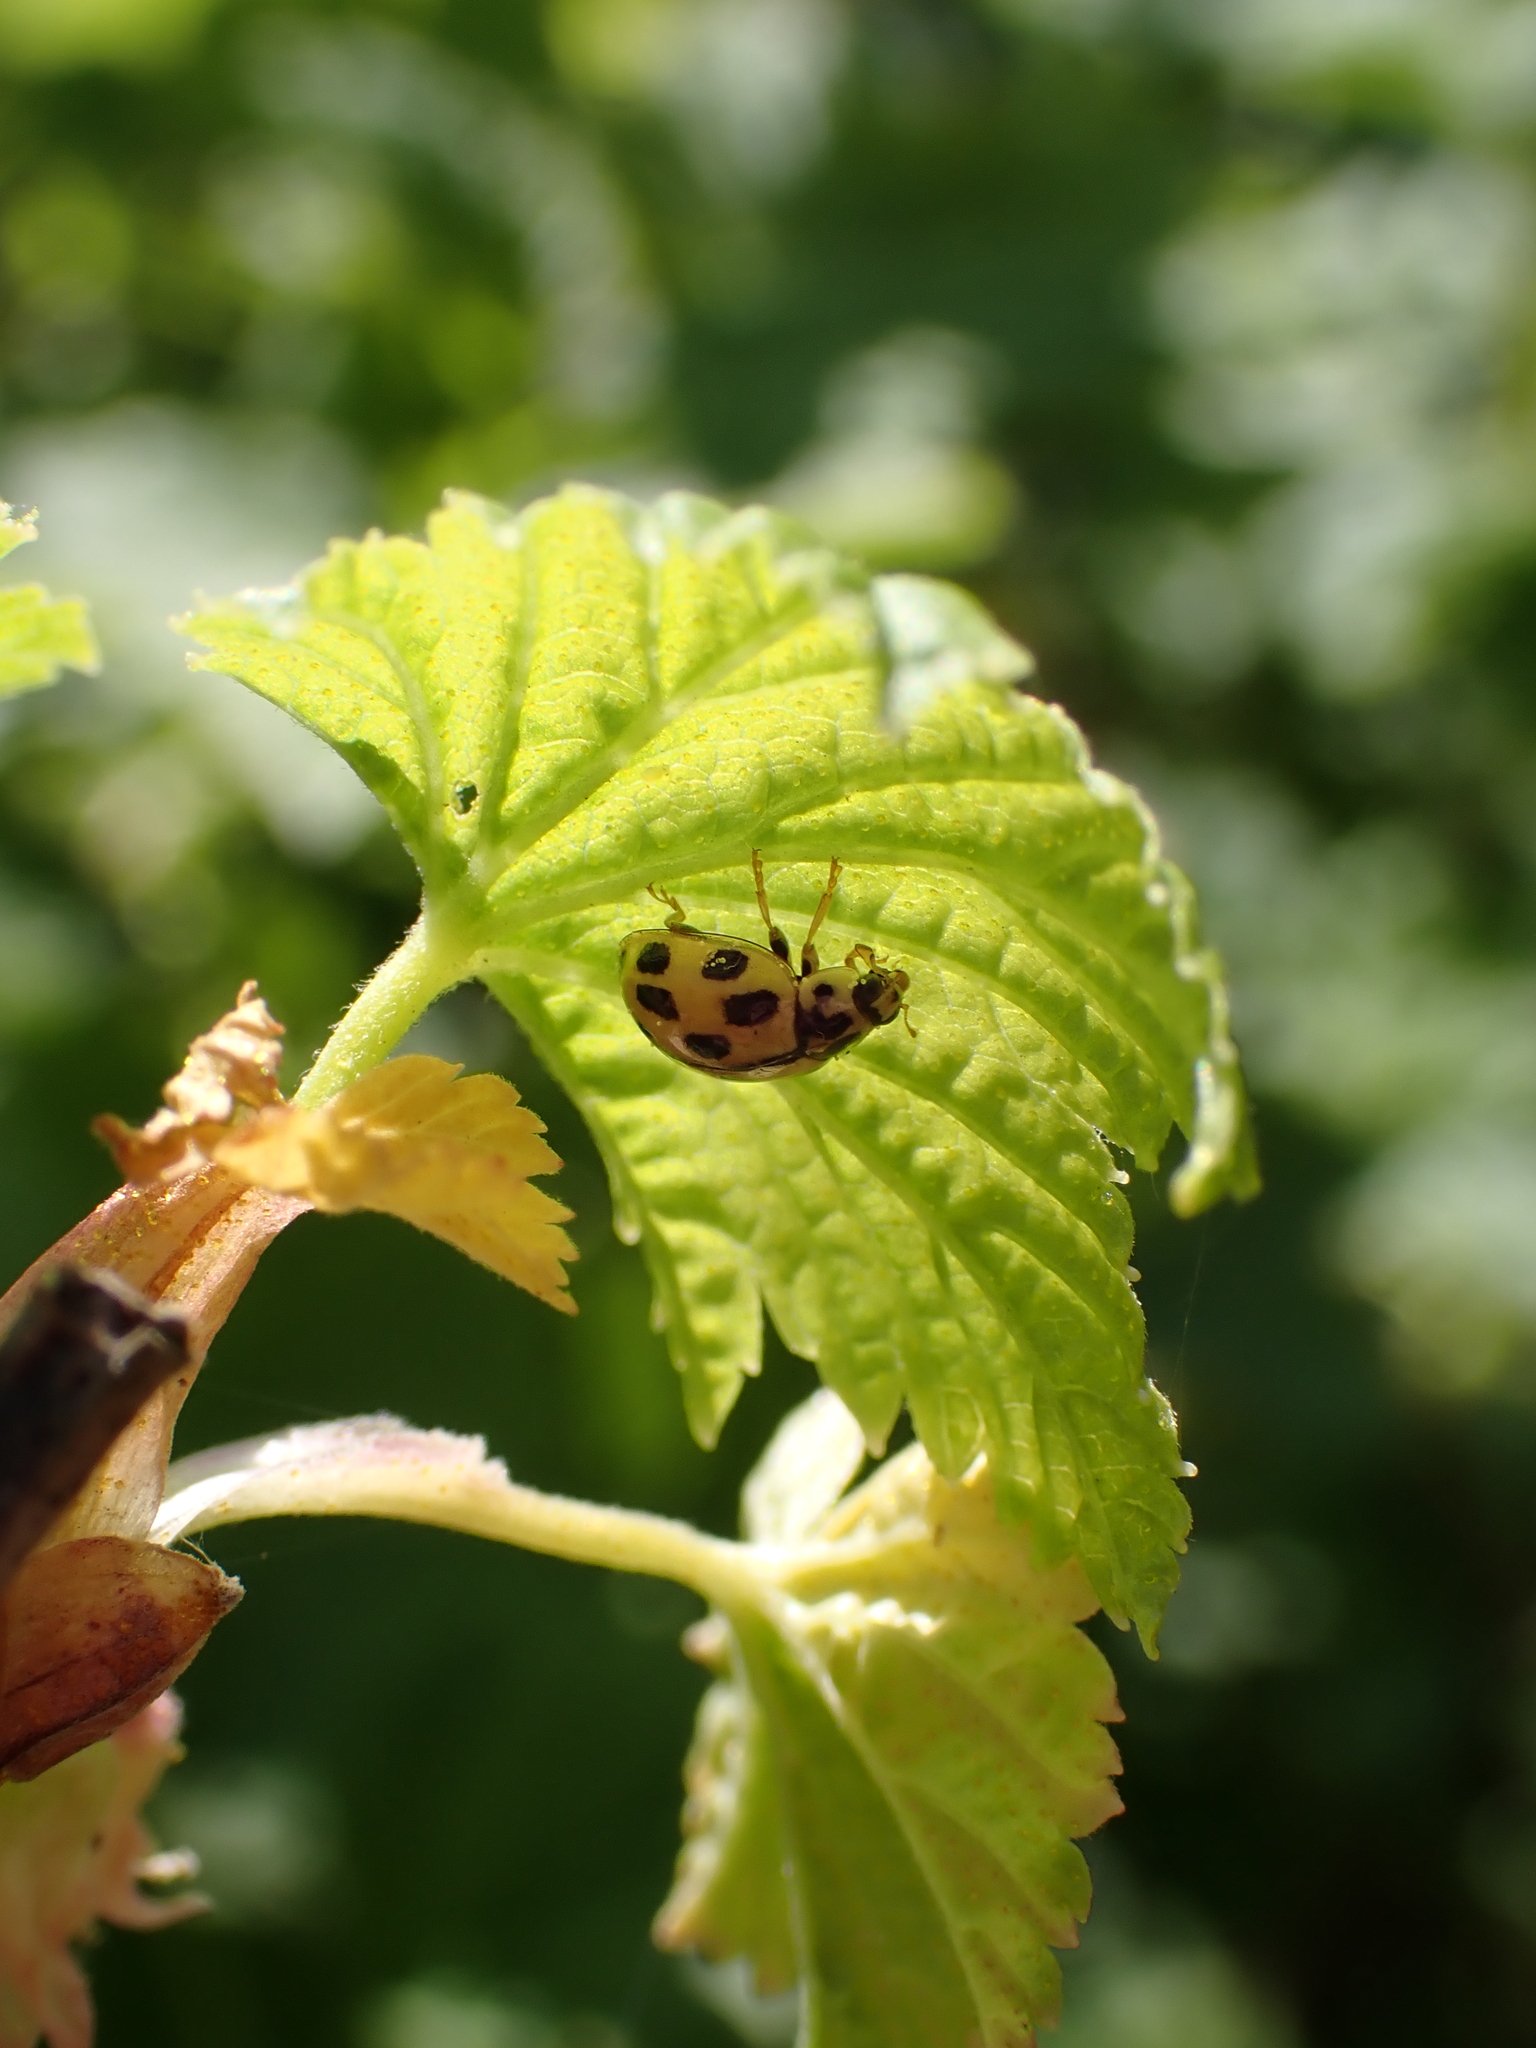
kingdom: Animalia
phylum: Arthropoda
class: Insecta
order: Coleoptera
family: Coccinellidae
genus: Propylaea
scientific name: Propylaea quatuordecimpunctata
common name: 14-spotted ladybird beetle
